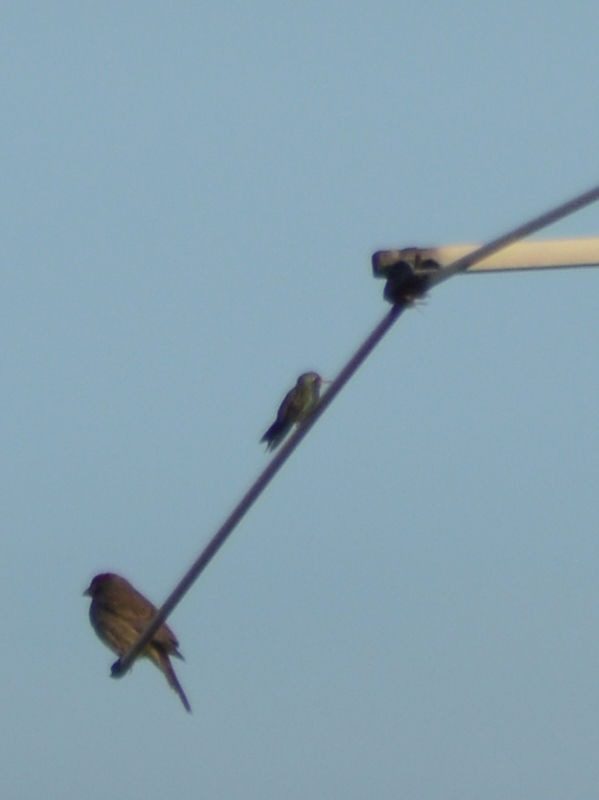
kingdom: Animalia
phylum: Chordata
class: Aves
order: Apodiformes
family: Trochilidae
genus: Cynanthus
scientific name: Cynanthus latirostris
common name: Broad-billed hummingbird
